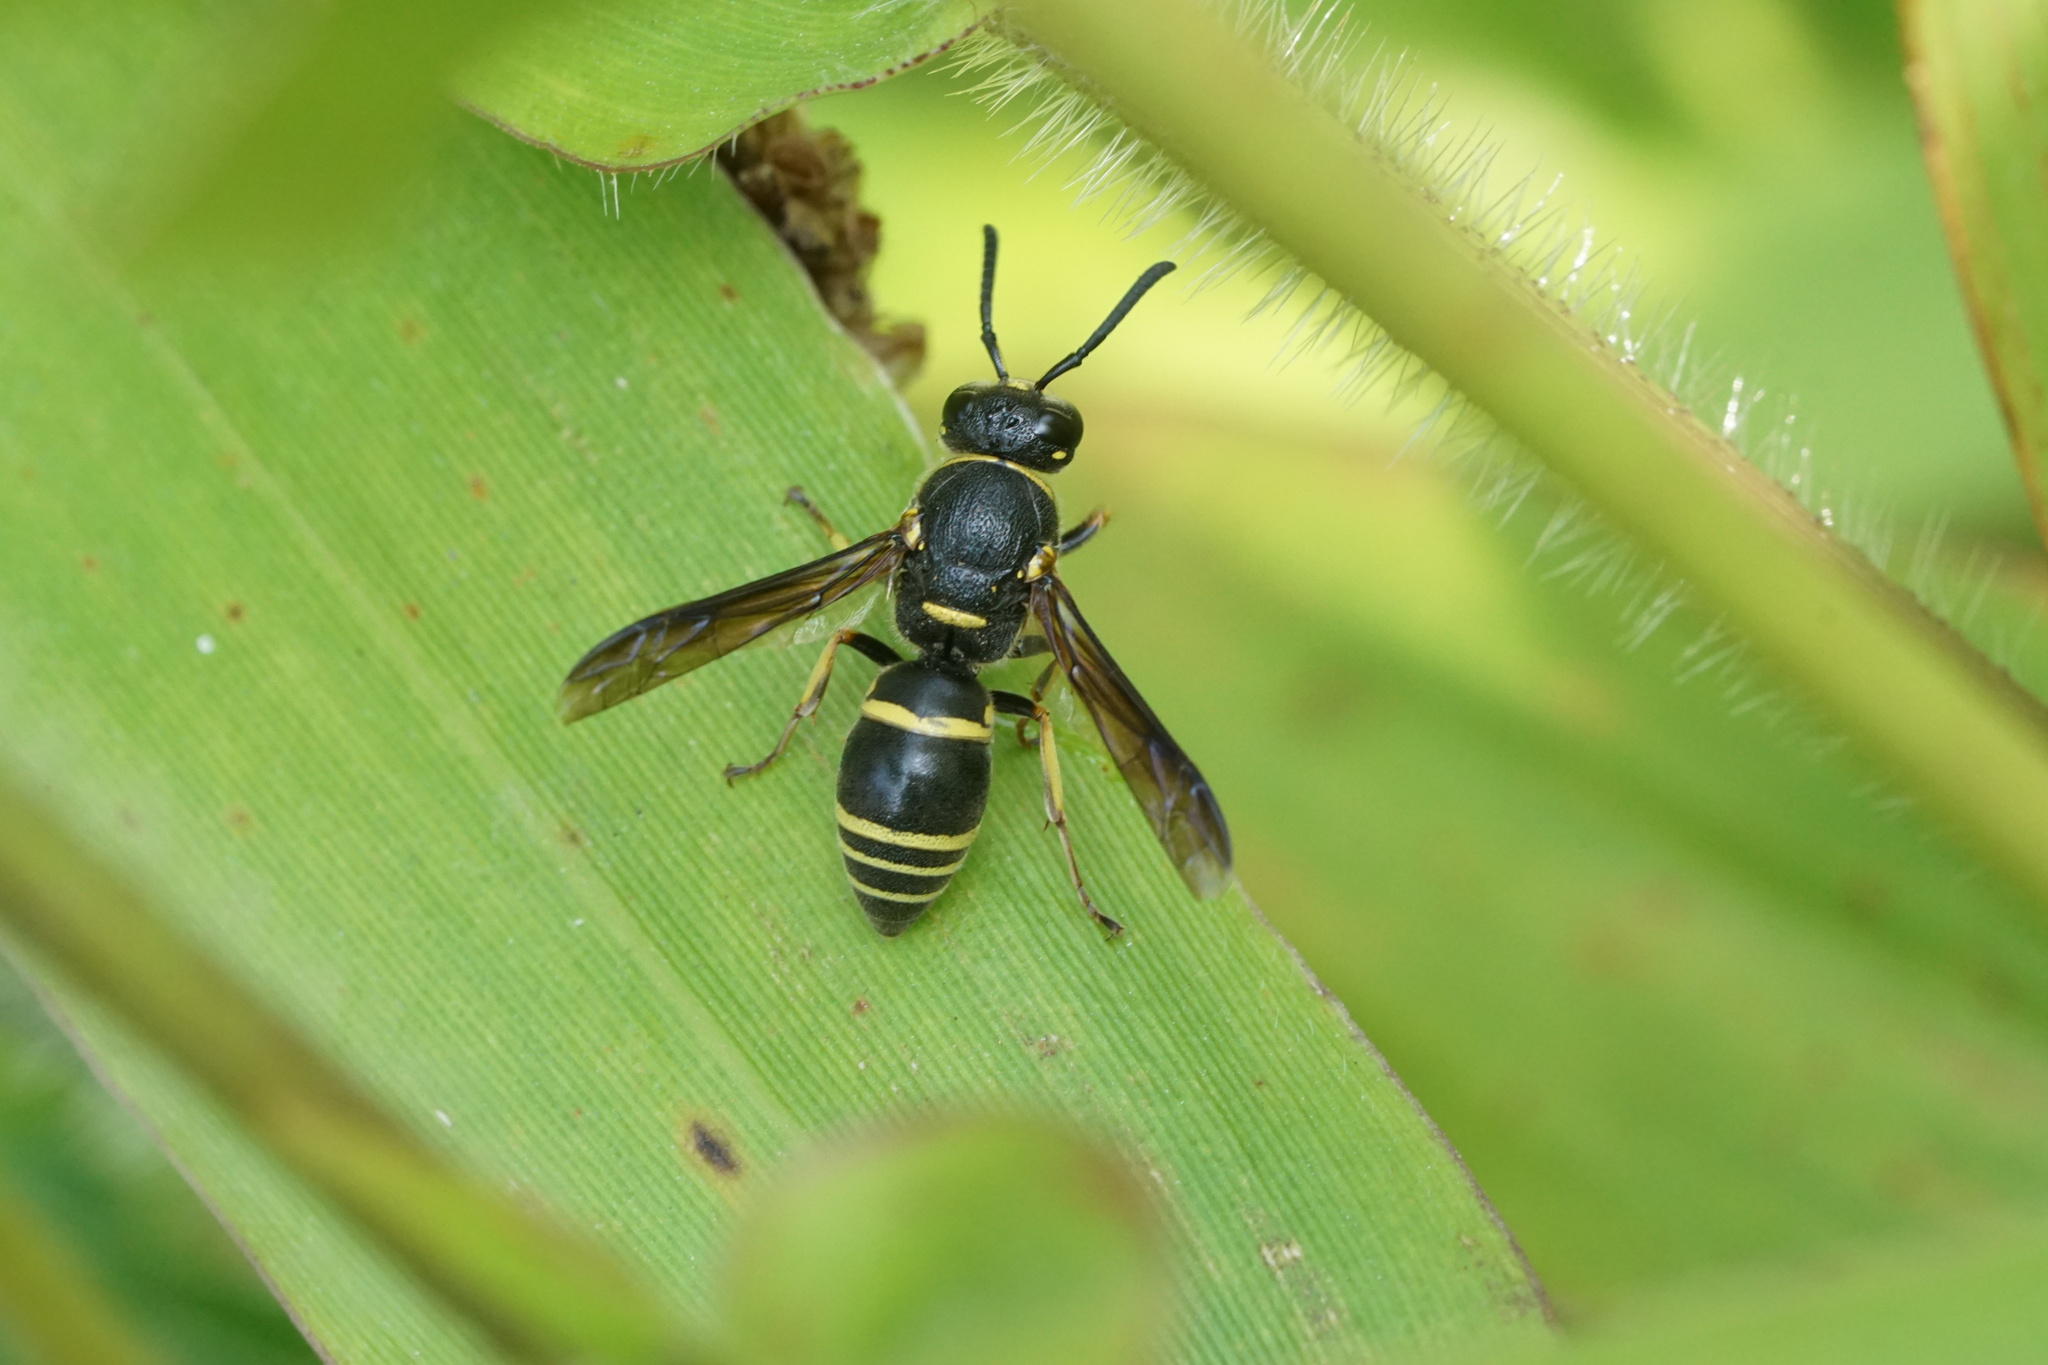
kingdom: Animalia
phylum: Arthropoda
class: Insecta
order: Hymenoptera
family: Eumenidae
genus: Euodynerus
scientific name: Euodynerus foraminatus
